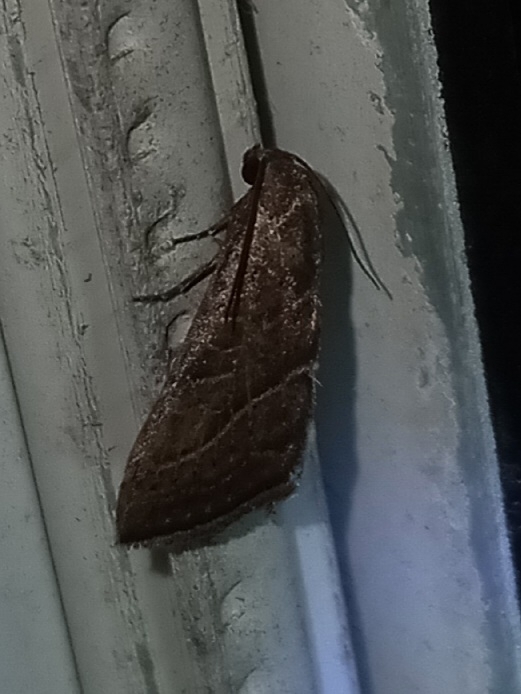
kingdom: Animalia
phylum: Arthropoda
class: Insecta
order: Lepidoptera
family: Noctuidae
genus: Galgula
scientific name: Galgula partita
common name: Wedgeling
